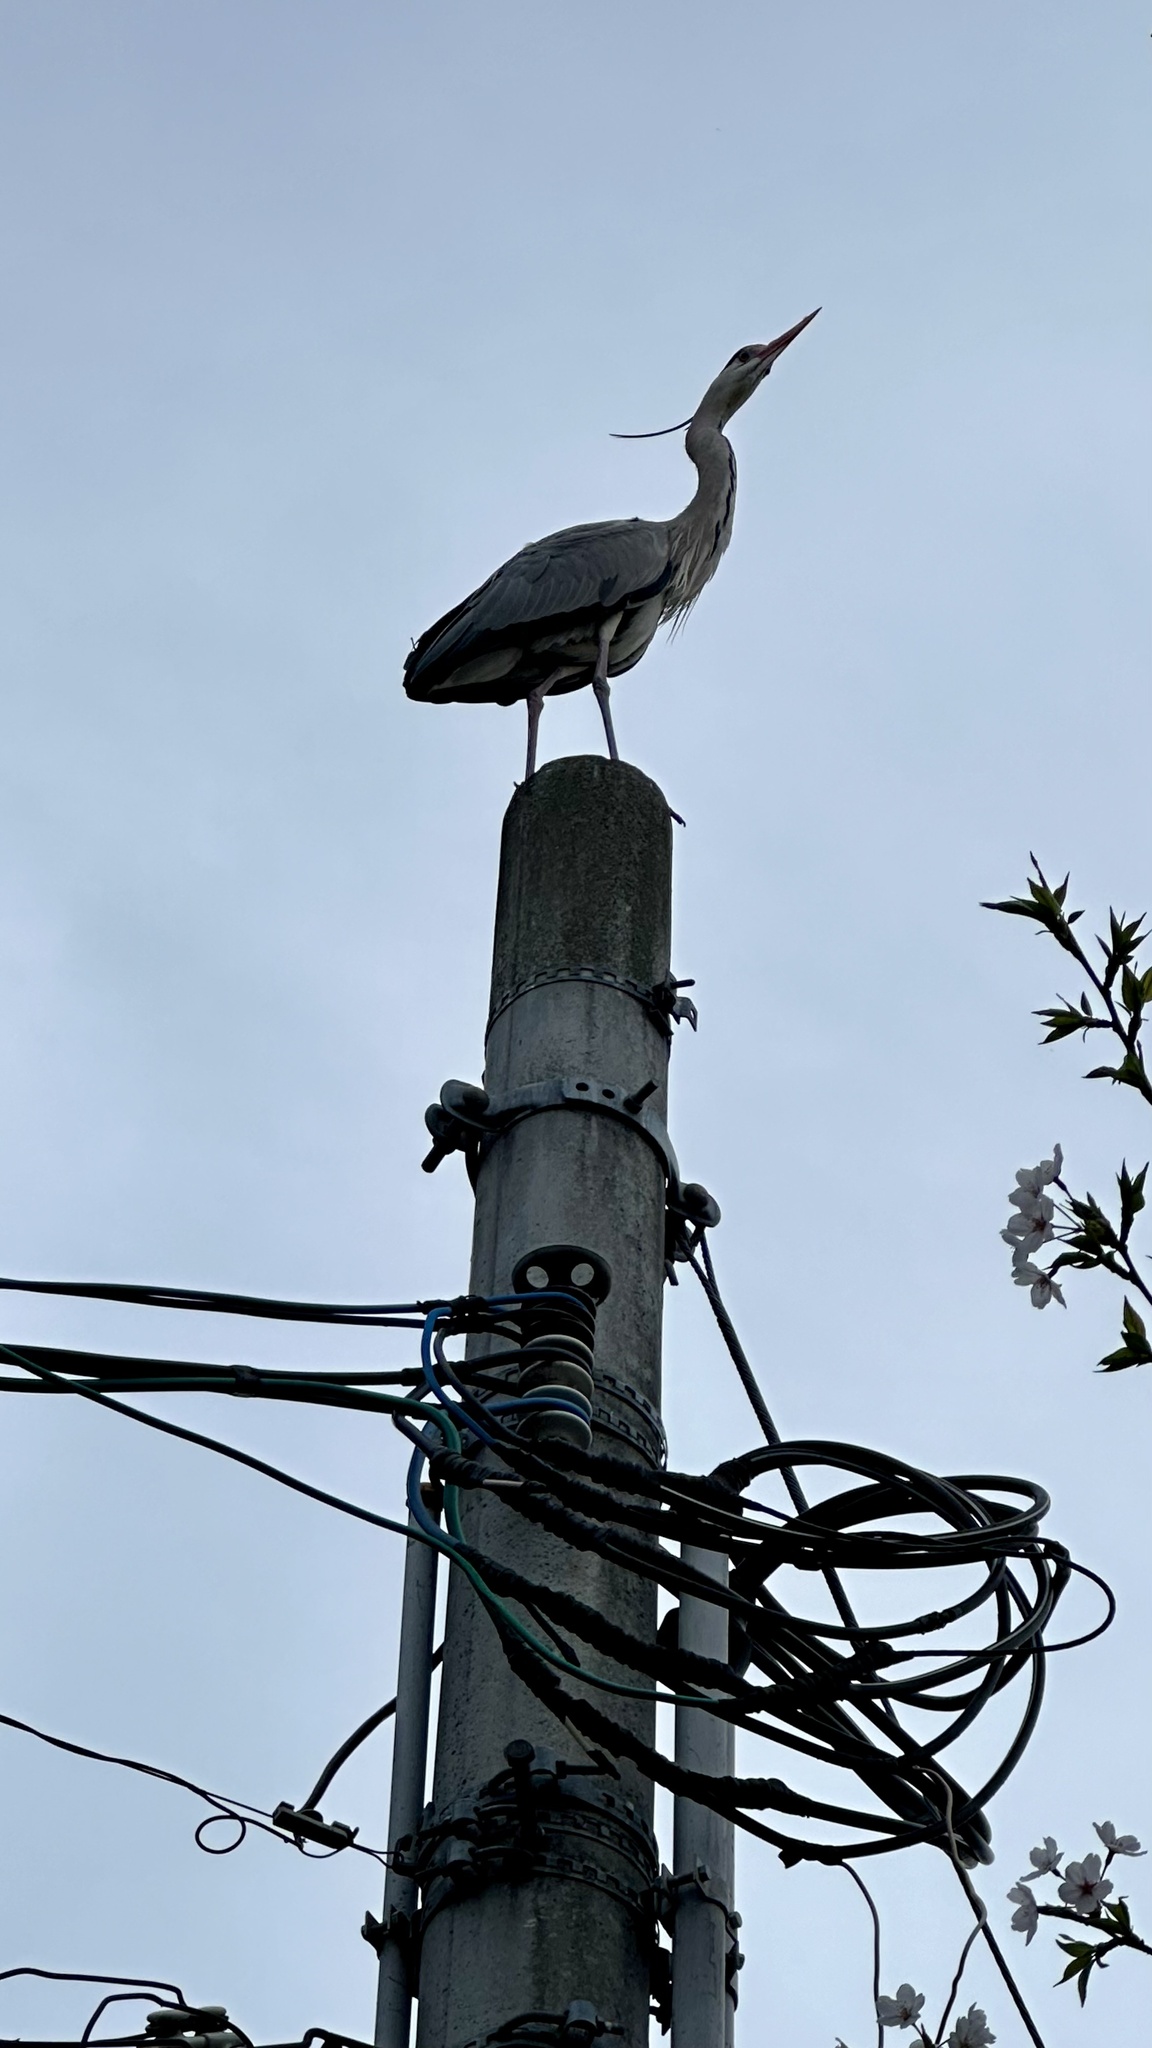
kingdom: Animalia
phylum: Chordata
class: Aves
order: Pelecaniformes
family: Ardeidae
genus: Ardea
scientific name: Ardea cinerea
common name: Grey heron
